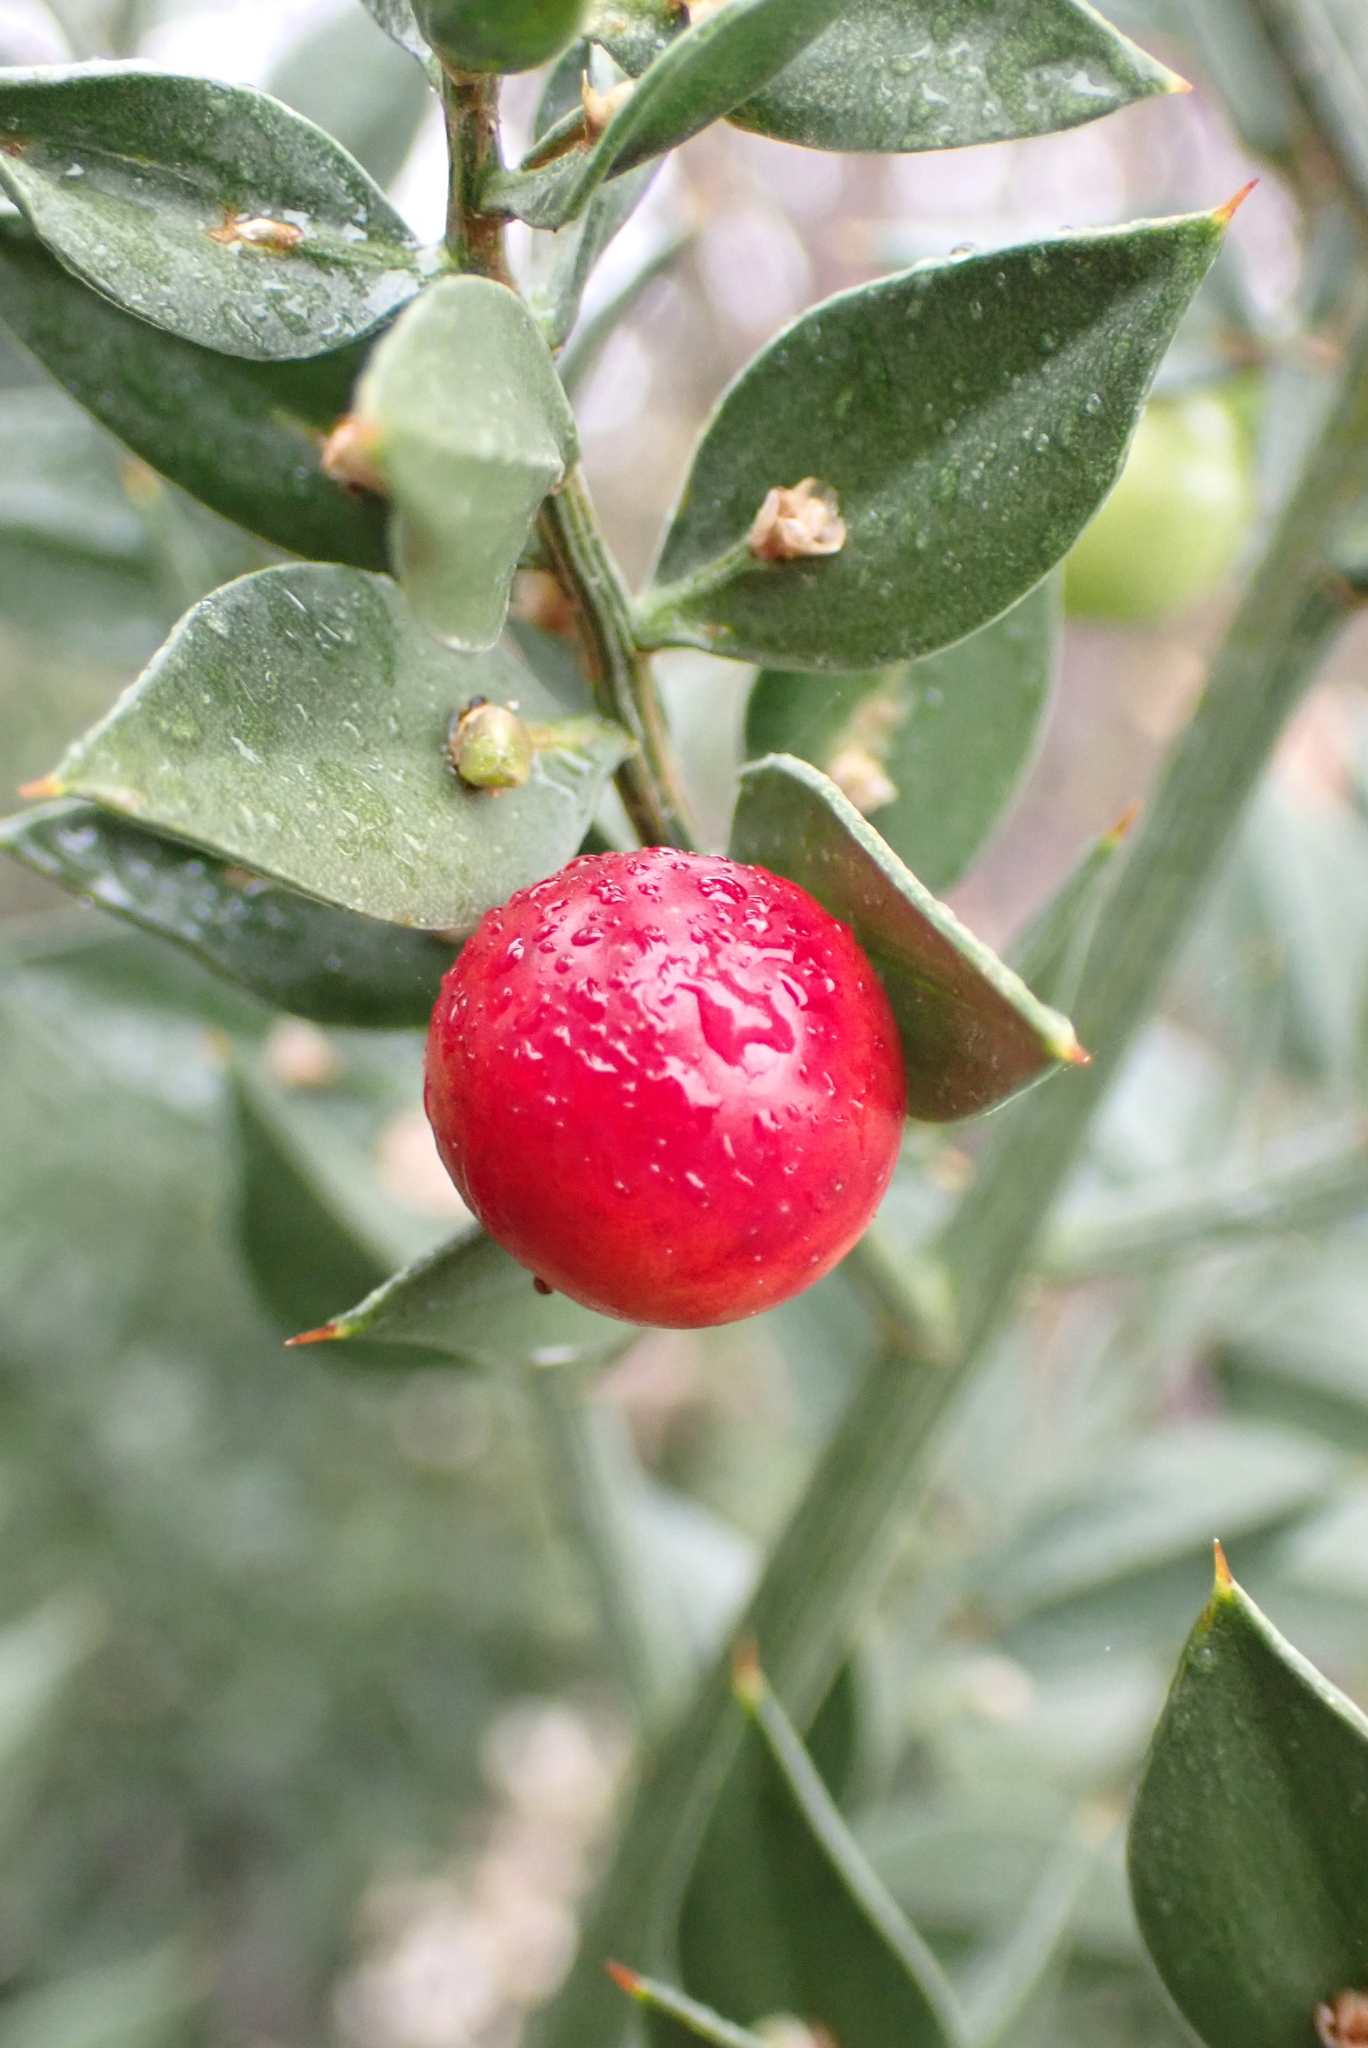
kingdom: Plantae
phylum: Tracheophyta
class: Liliopsida
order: Asparagales
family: Asparagaceae
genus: Ruscus
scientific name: Ruscus aculeatus
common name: Butcher's-broom
